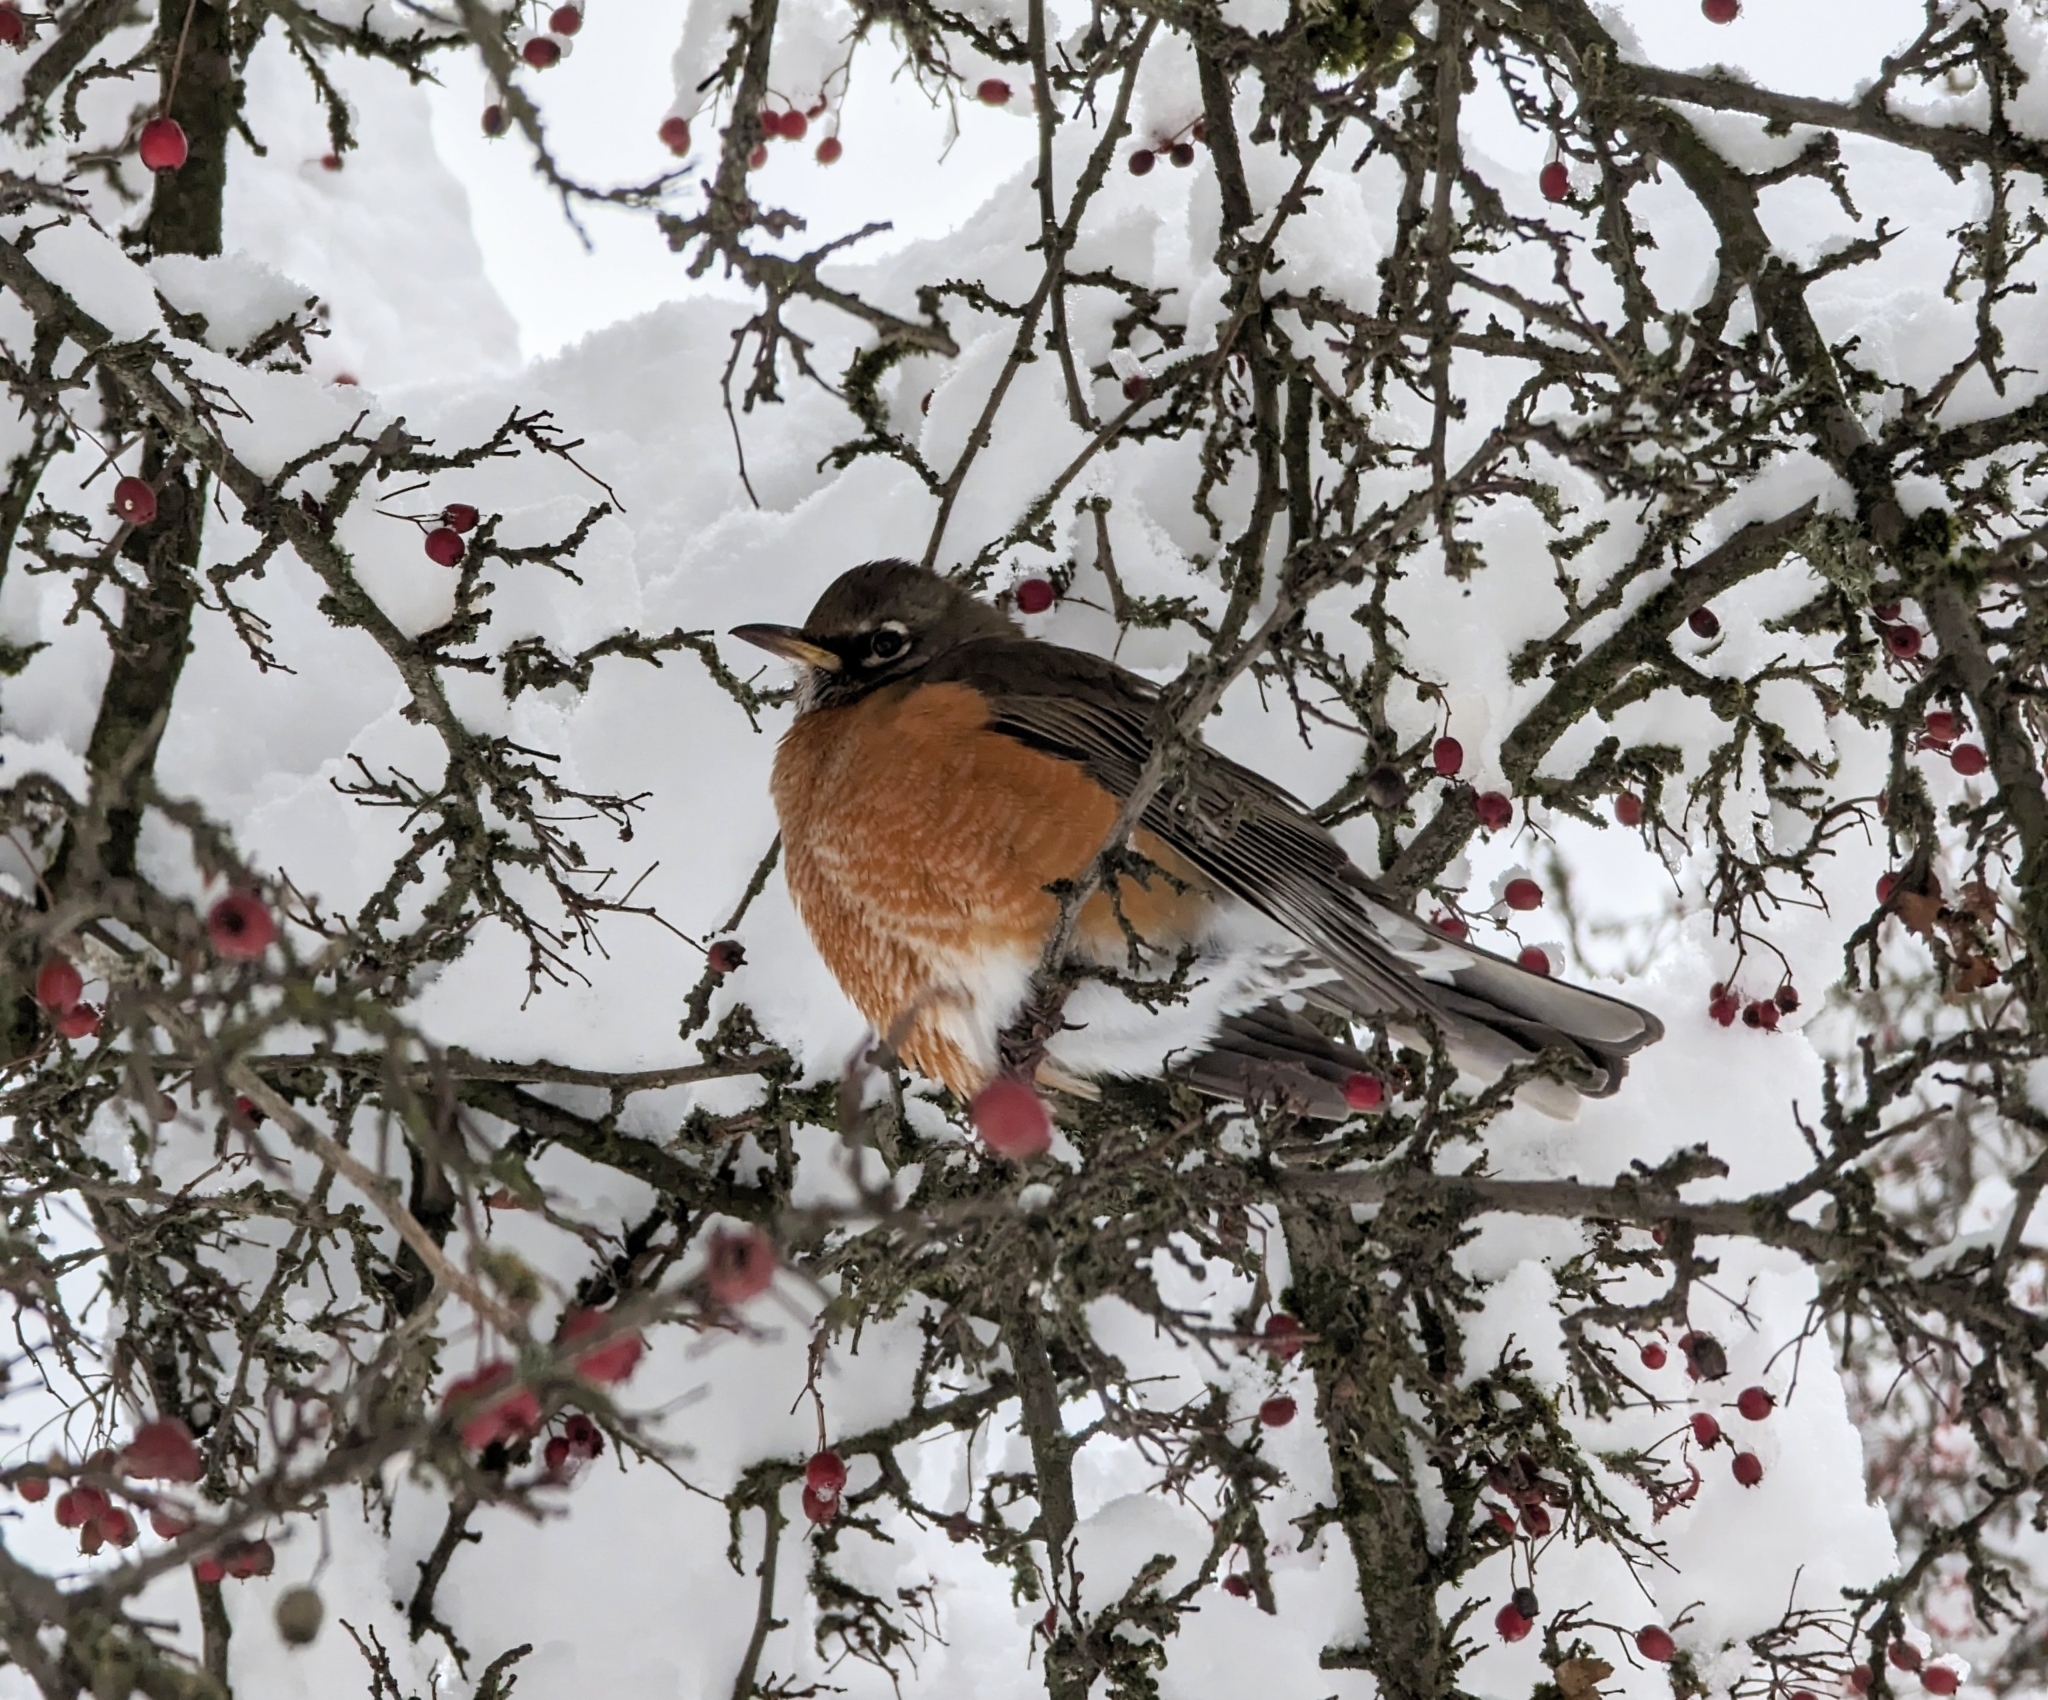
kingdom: Animalia
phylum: Chordata
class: Aves
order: Passeriformes
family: Turdidae
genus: Turdus
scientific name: Turdus migratorius
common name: American robin
